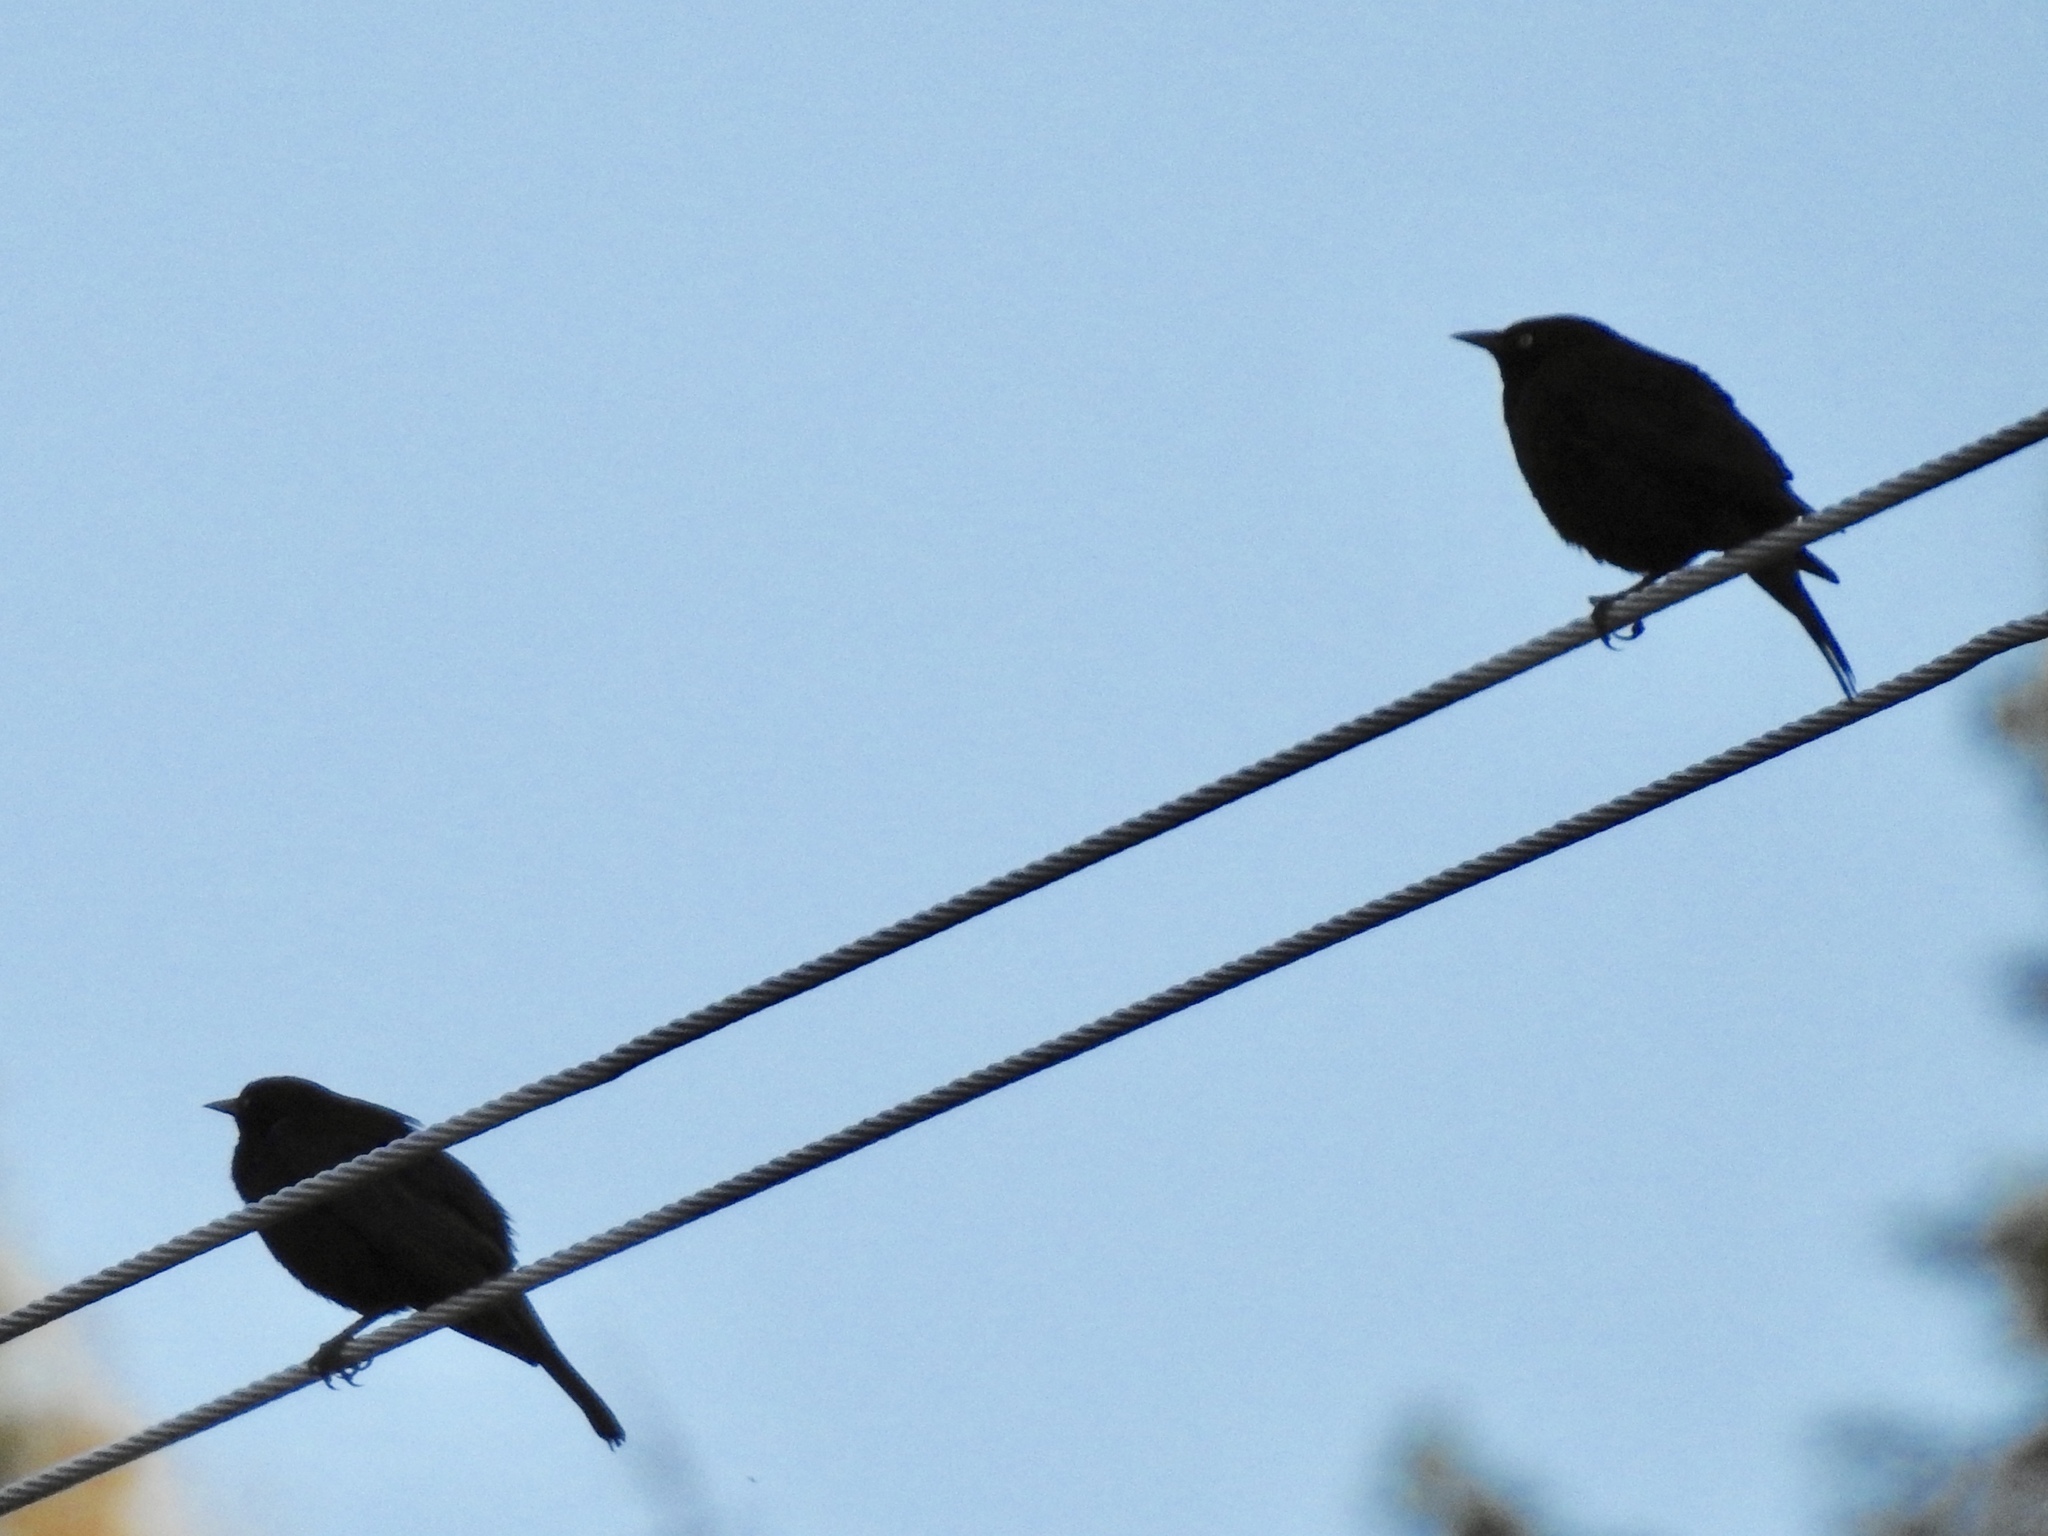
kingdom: Animalia
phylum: Chordata
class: Aves
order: Passeriformes
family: Icteridae
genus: Euphagus
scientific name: Euphagus cyanocephalus
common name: Brewer's blackbird
